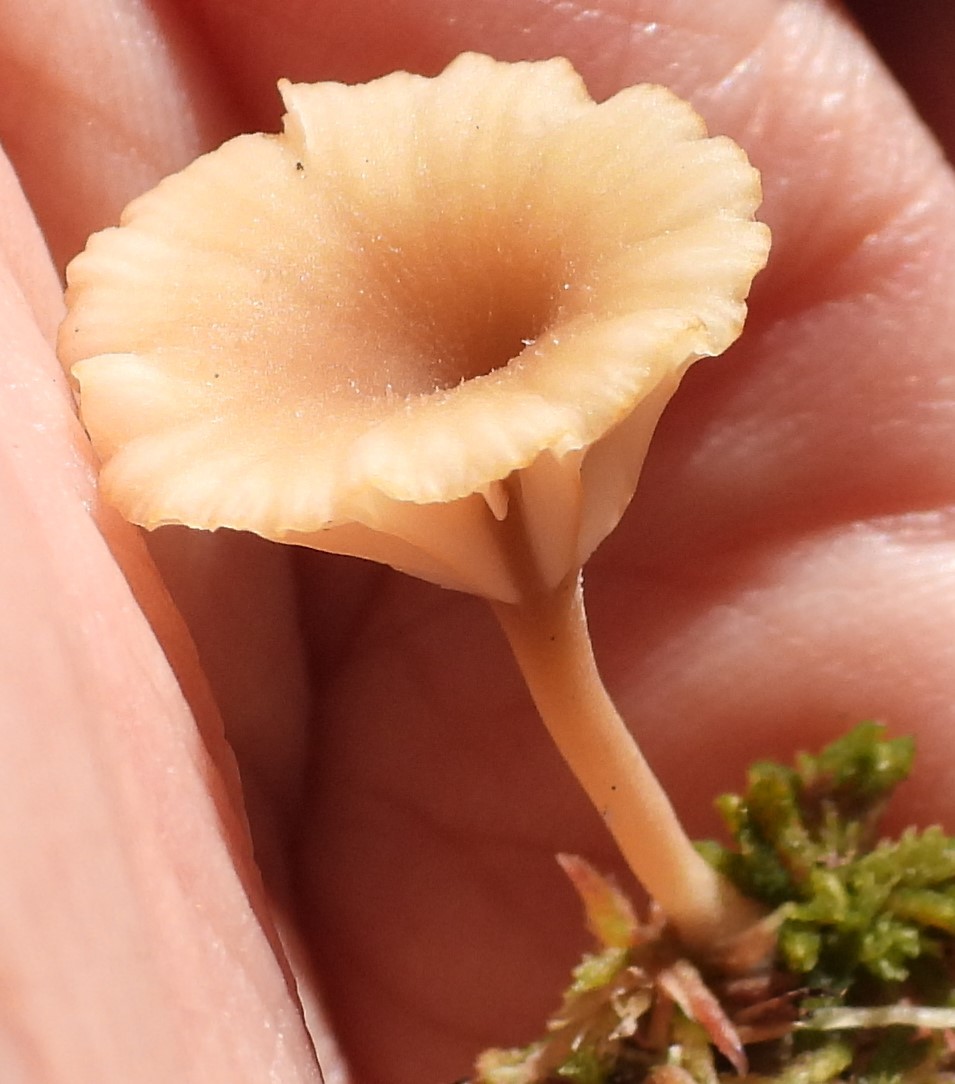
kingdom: Fungi
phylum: Basidiomycota
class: Agaricomycetes
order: Agaricales
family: Hygrophoraceae
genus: Lichenomphalia
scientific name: Lichenomphalia
